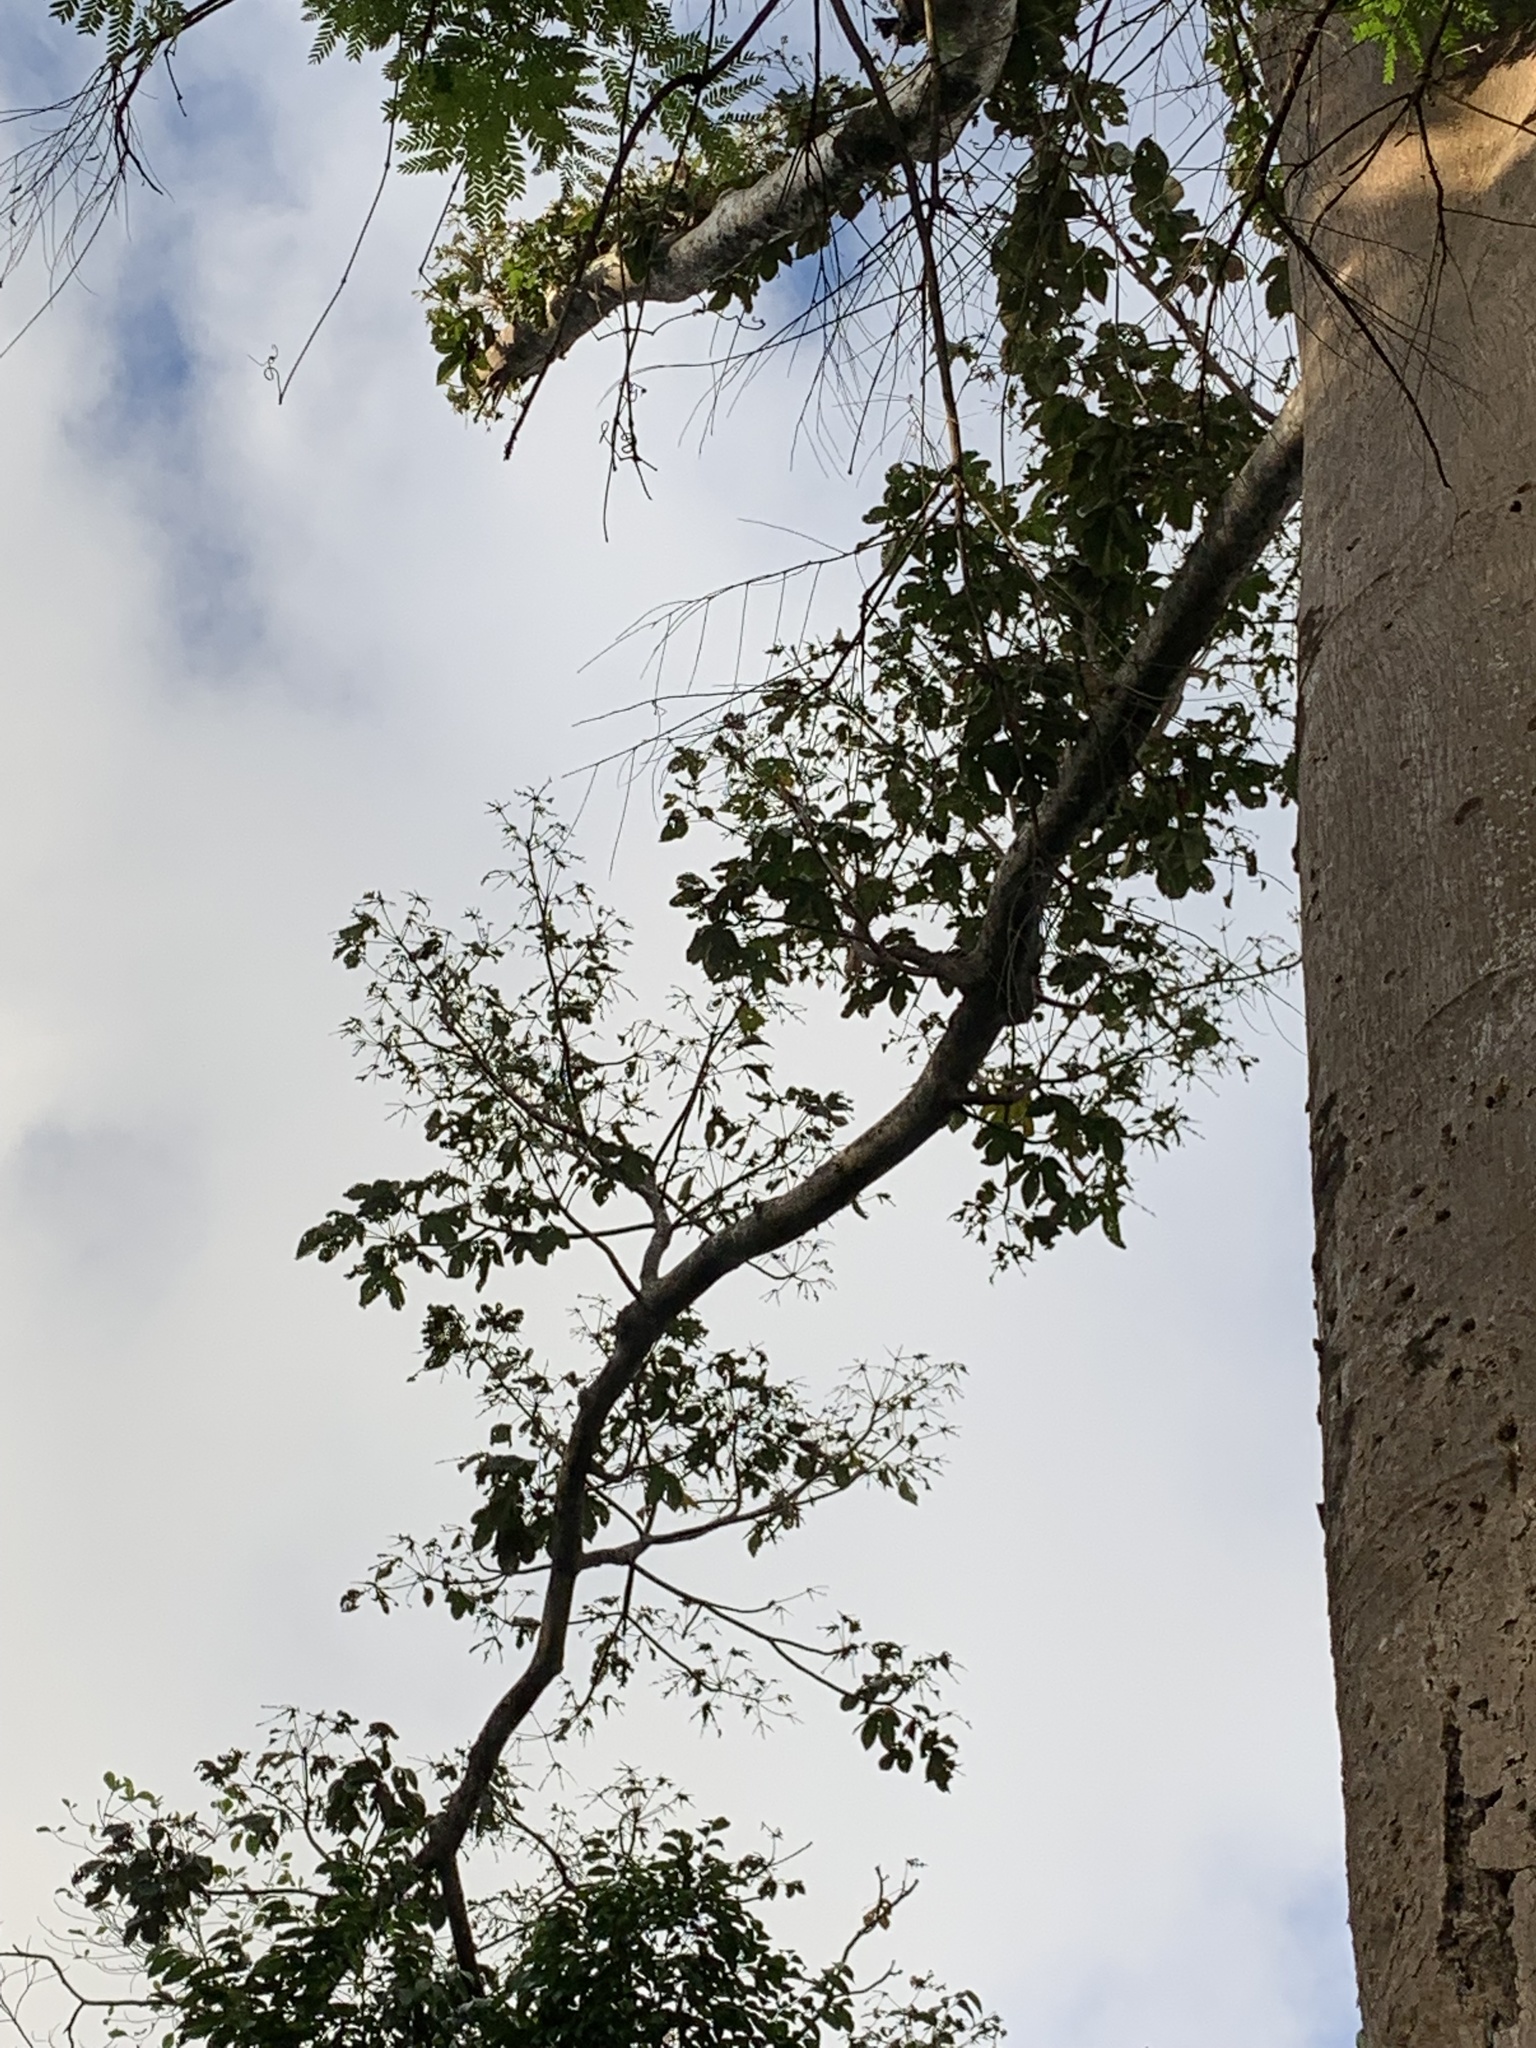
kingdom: Plantae
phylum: Tracheophyta
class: Magnoliopsida
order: Malvales
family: Malvaceae
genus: Sterculia
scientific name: Sterculia apetala
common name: Panama tree
